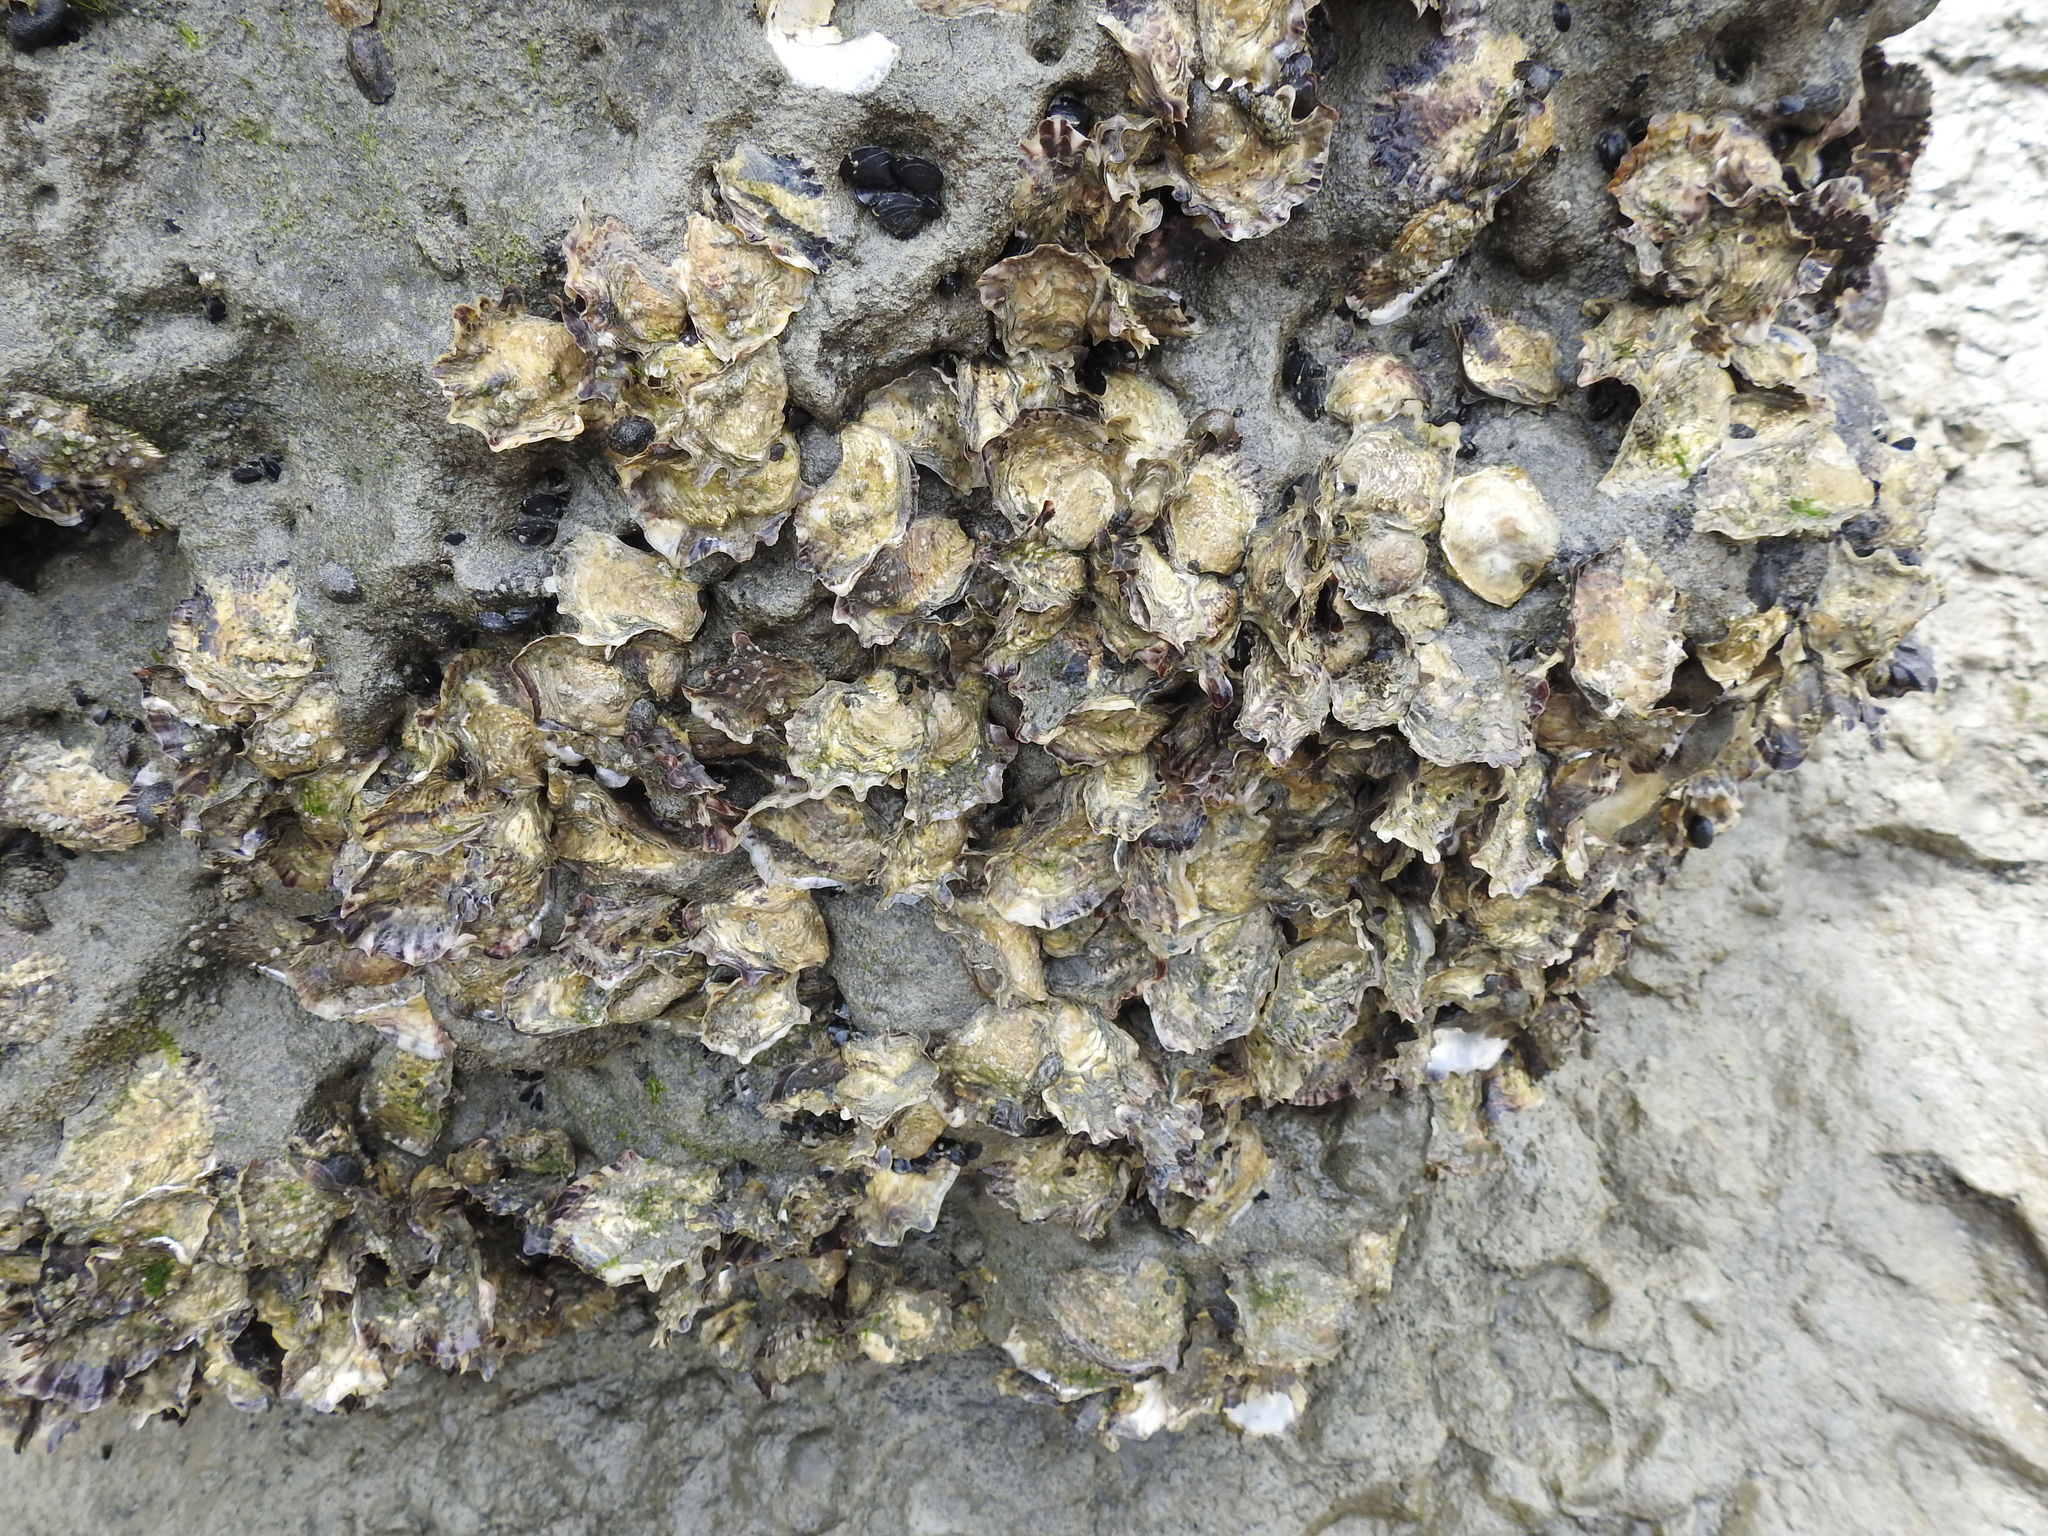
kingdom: Animalia
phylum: Mollusca
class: Bivalvia
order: Ostreida
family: Ostreidae
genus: Magallana
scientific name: Magallana gigas
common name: Pacific oyster
